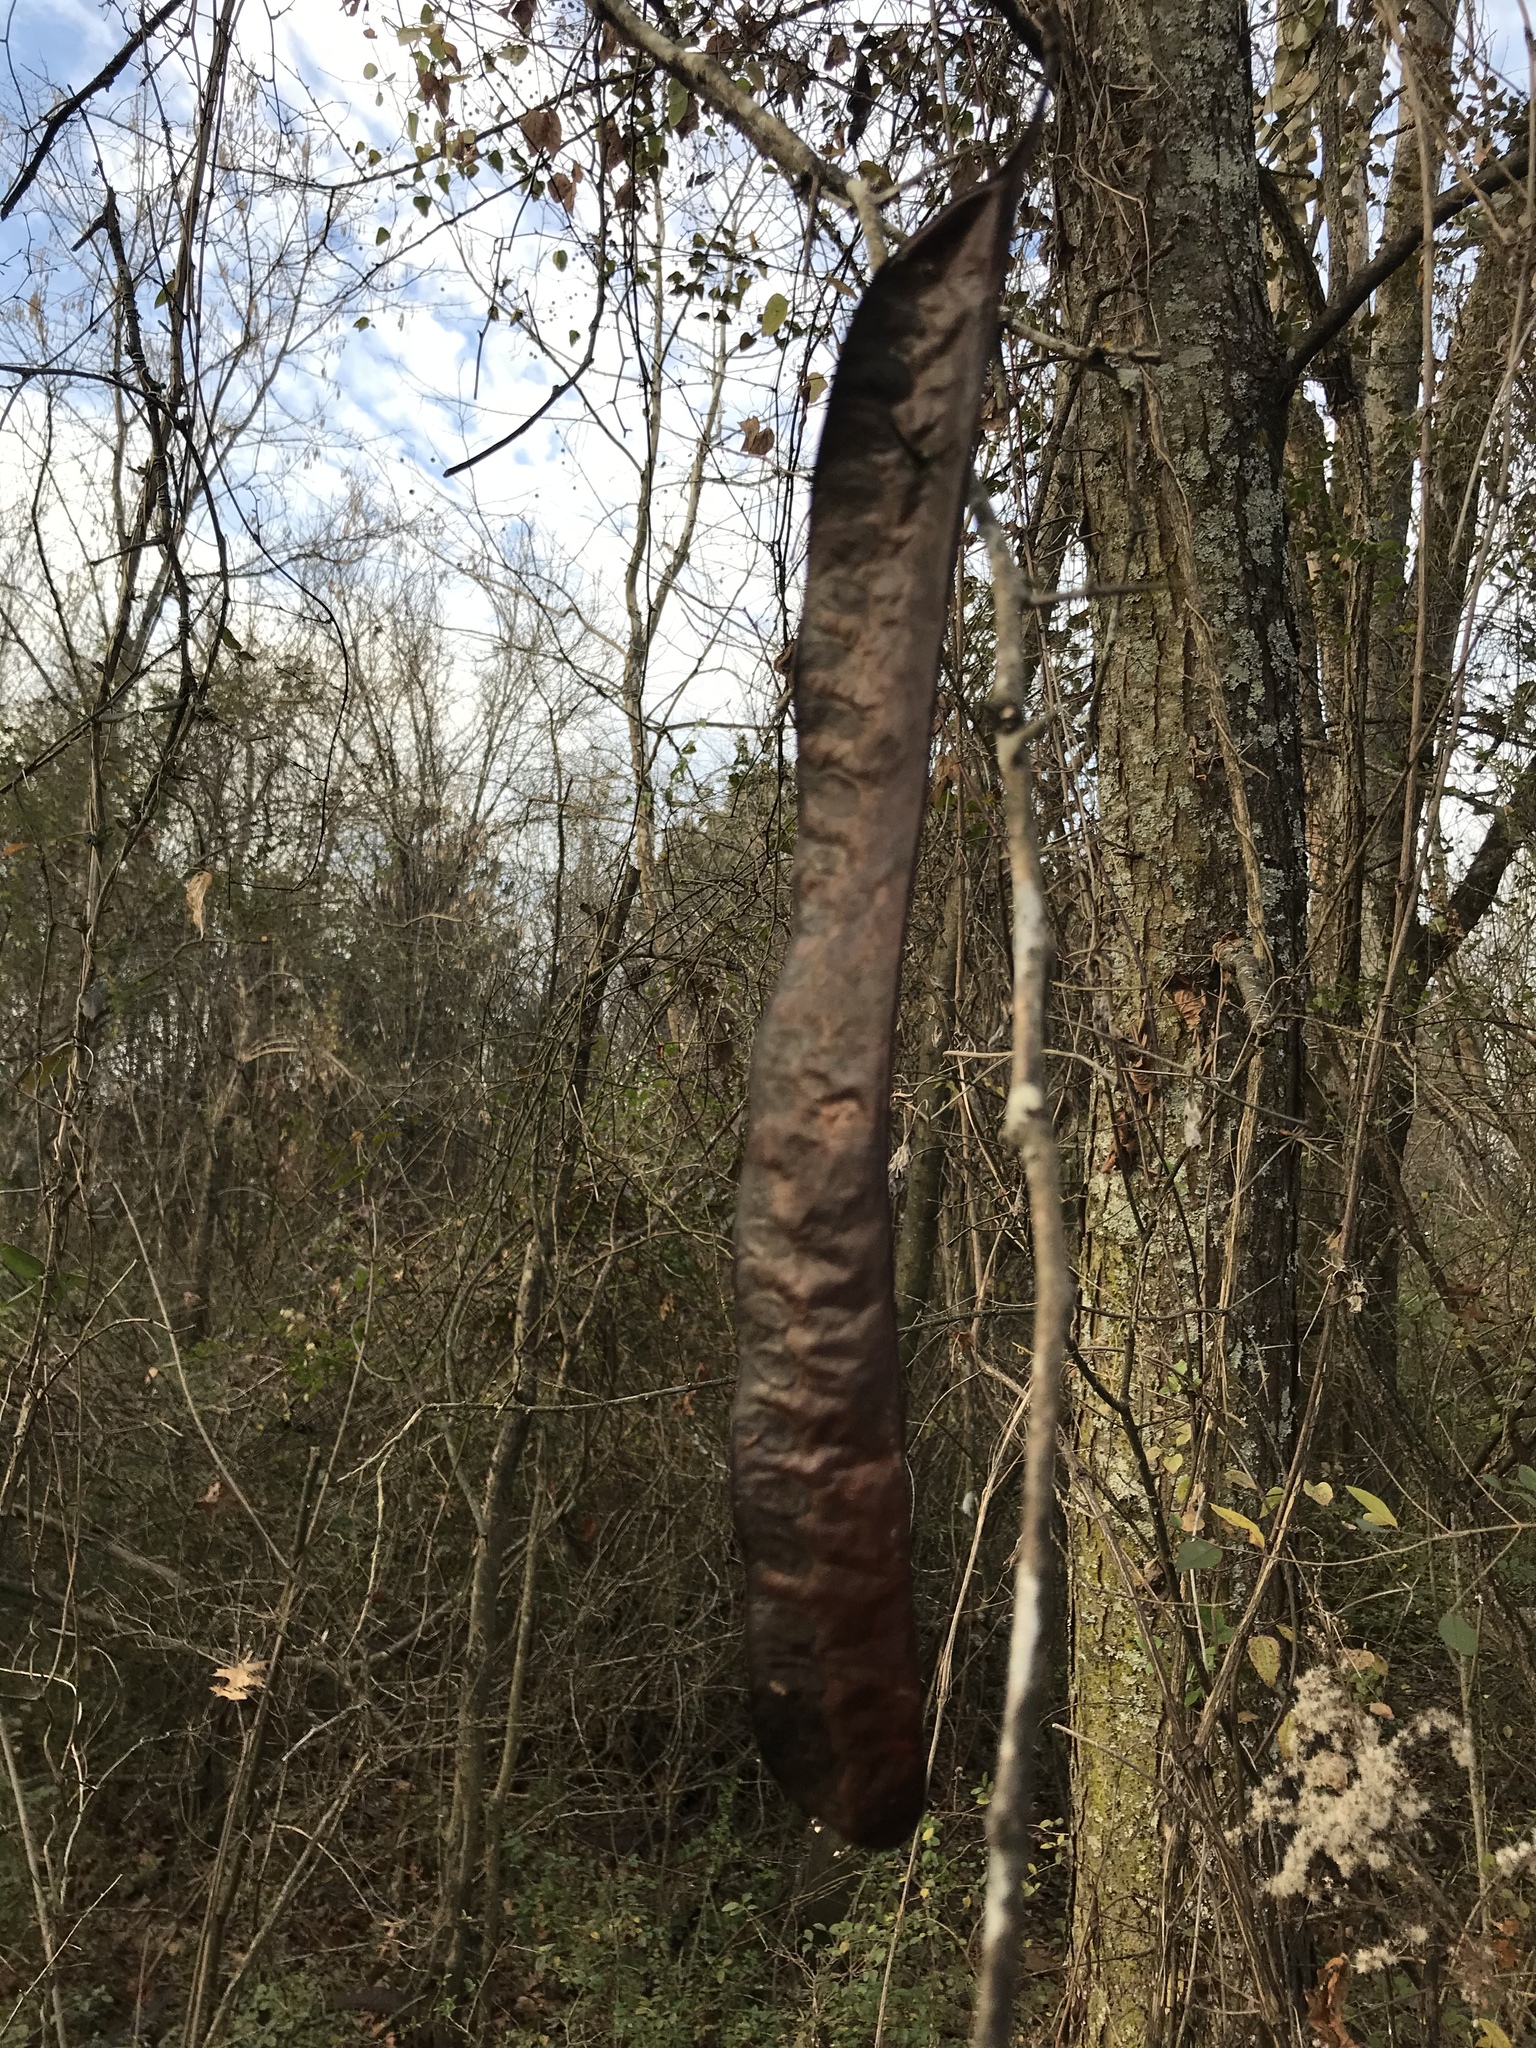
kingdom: Plantae
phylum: Tracheophyta
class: Magnoliopsida
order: Fabales
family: Fabaceae
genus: Gleditsia
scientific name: Gleditsia triacanthos
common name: Common honeylocust
